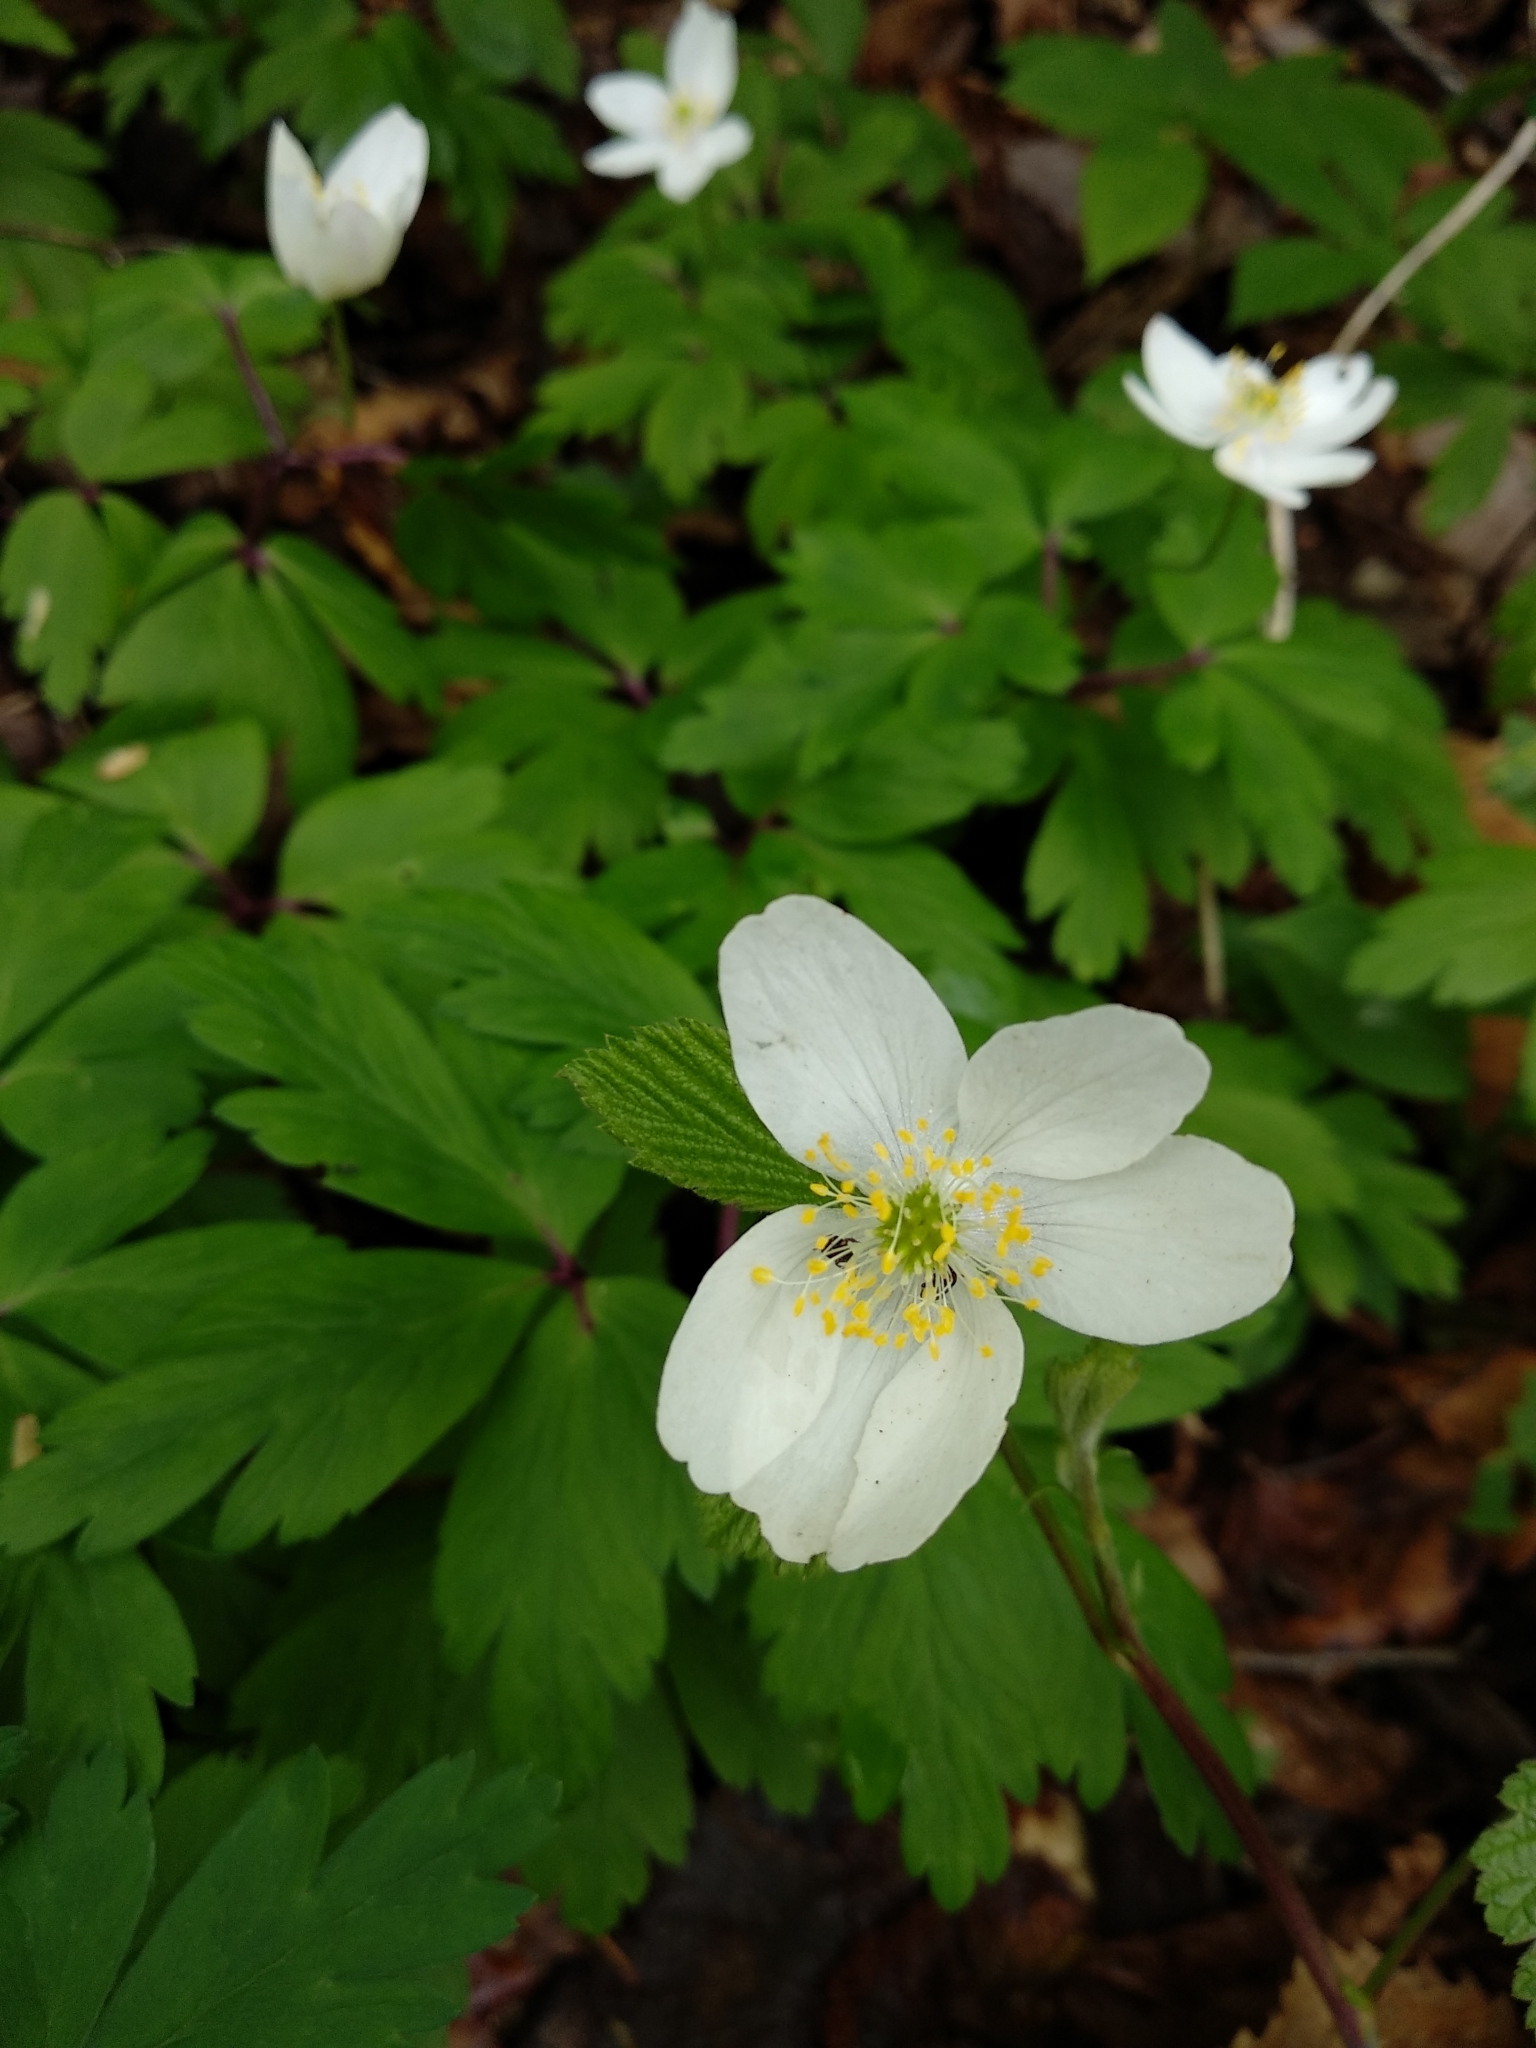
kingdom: Plantae
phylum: Tracheophyta
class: Magnoliopsida
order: Ranunculales
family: Ranunculaceae
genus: Anemone
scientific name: Anemone nemorosa
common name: Wood anemone
